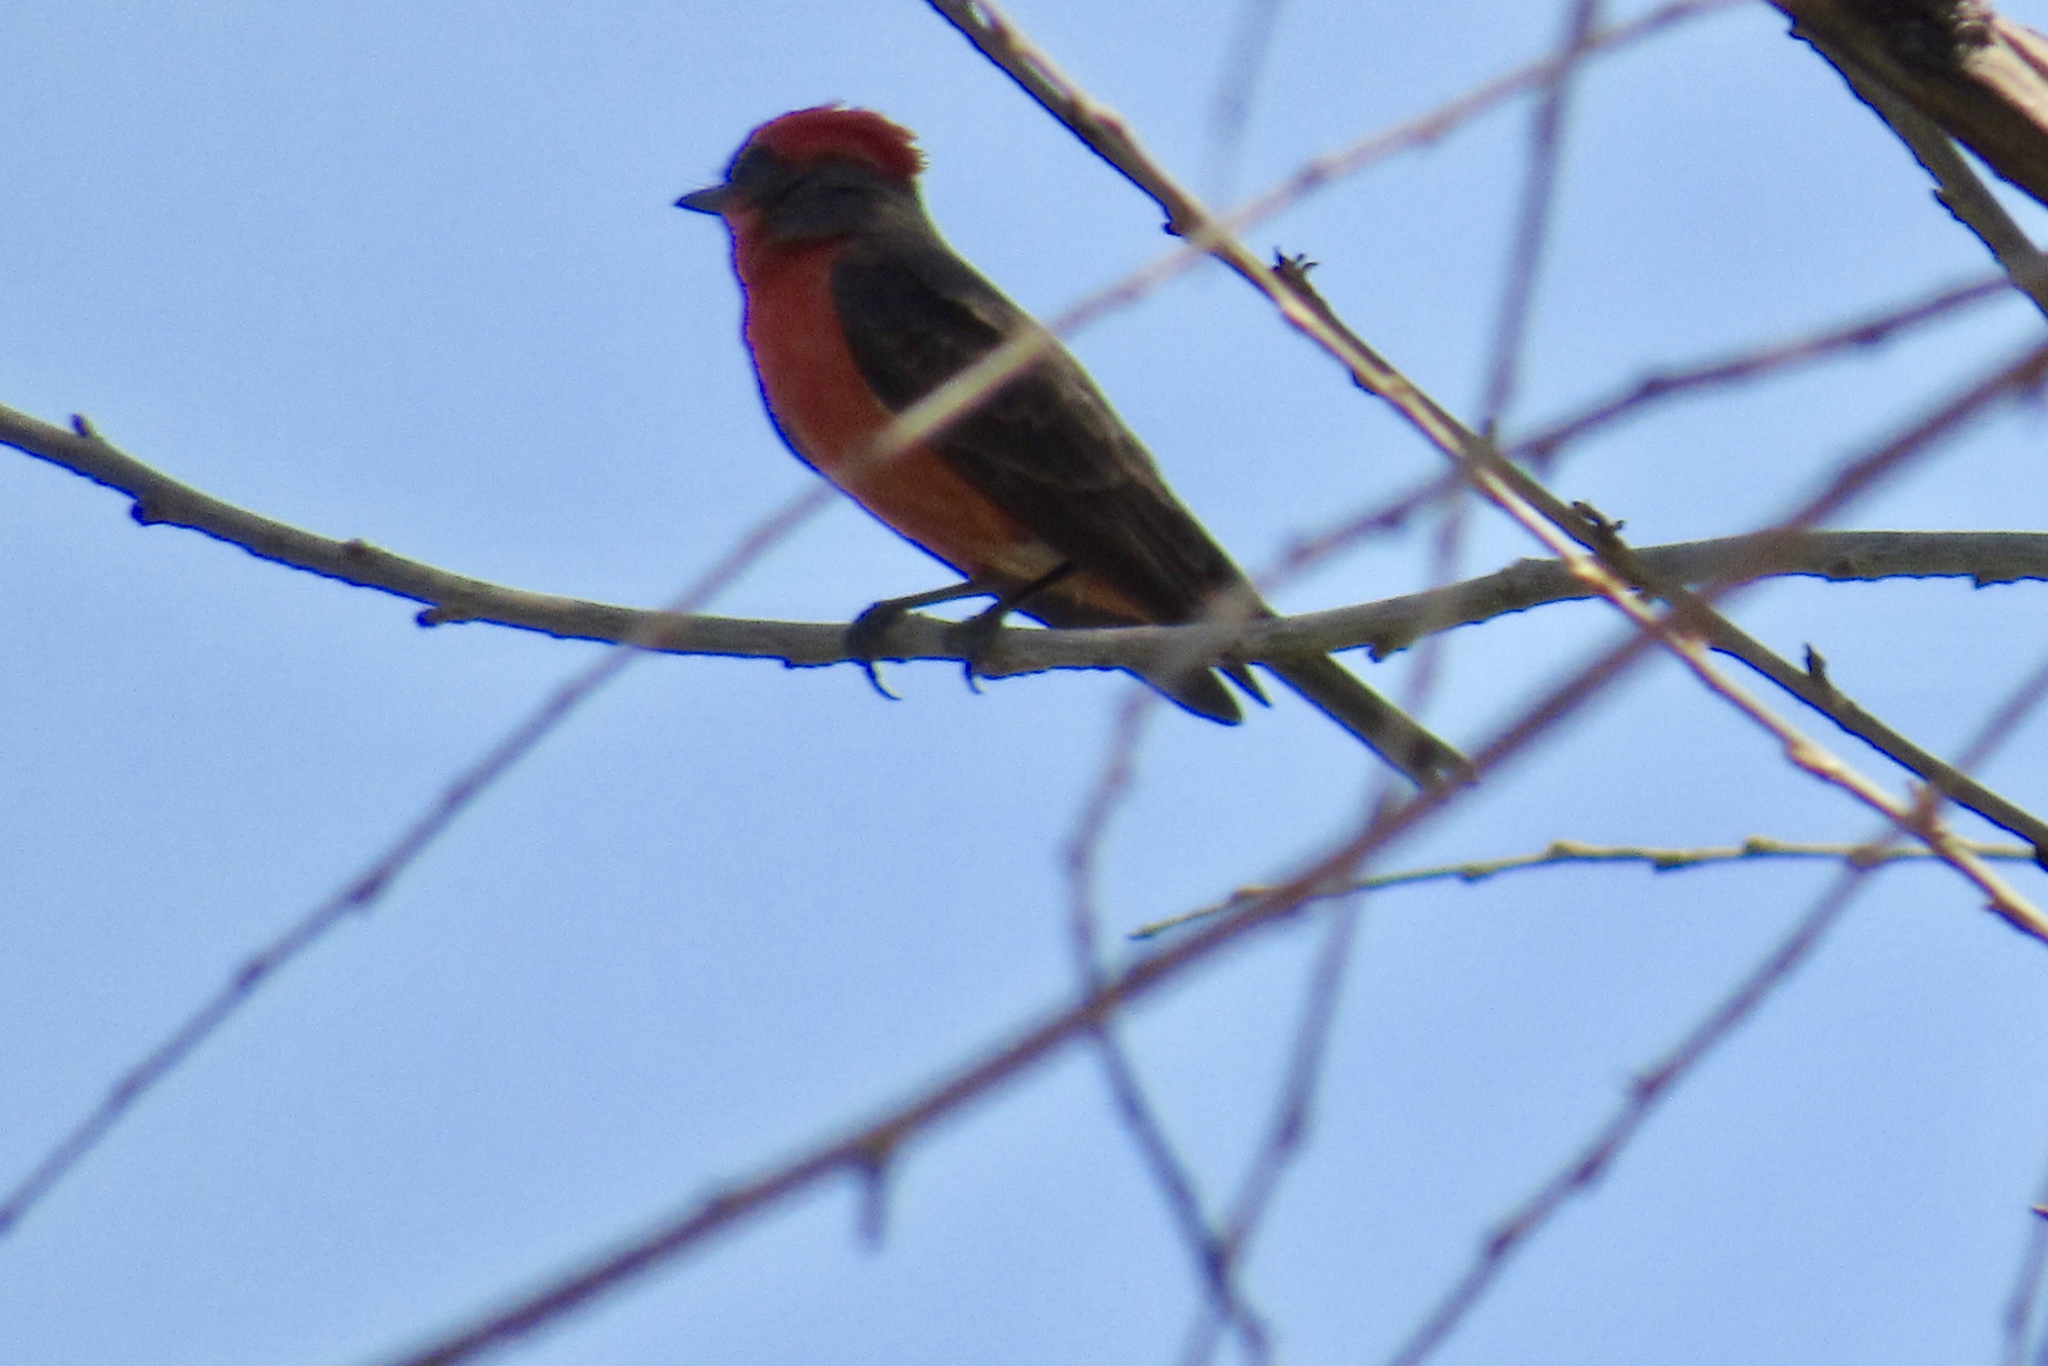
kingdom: Animalia
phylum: Chordata
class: Aves
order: Passeriformes
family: Tyrannidae
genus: Pyrocephalus
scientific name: Pyrocephalus rubinus
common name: Vermilion flycatcher
